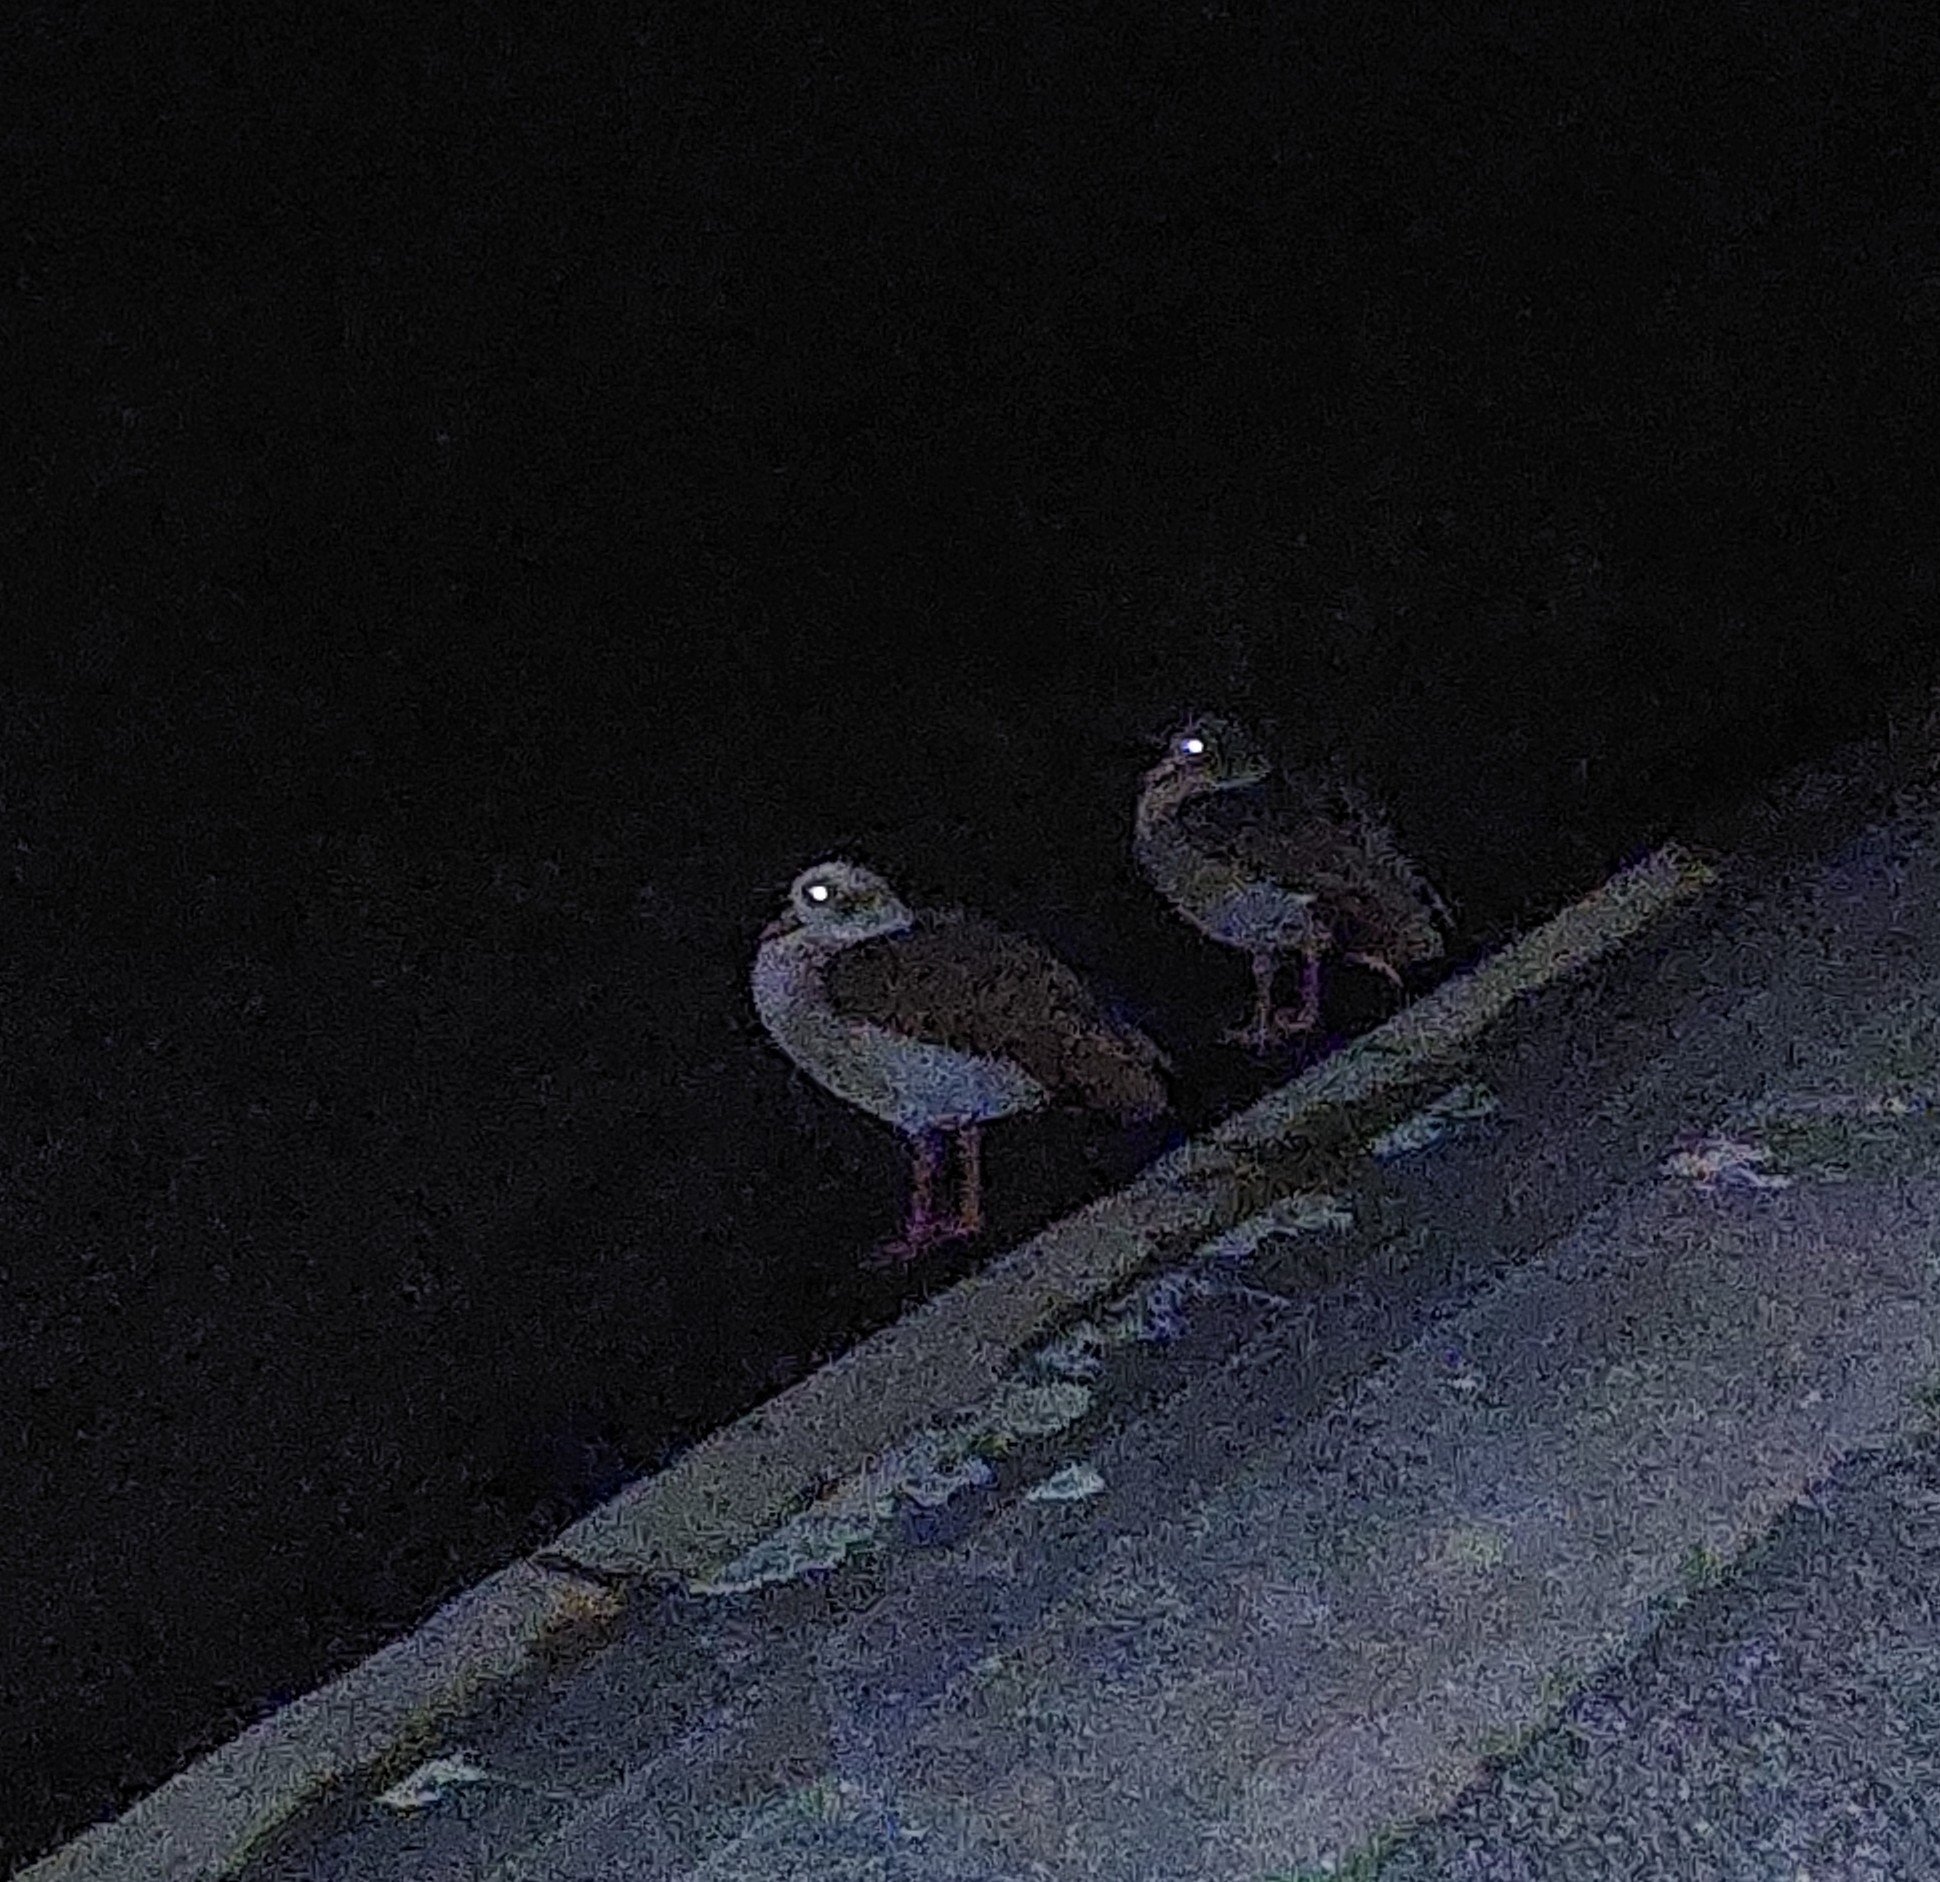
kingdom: Animalia
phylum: Chordata
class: Aves
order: Anseriformes
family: Anatidae
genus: Alopochen
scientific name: Alopochen aegyptiaca
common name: Egyptian goose
